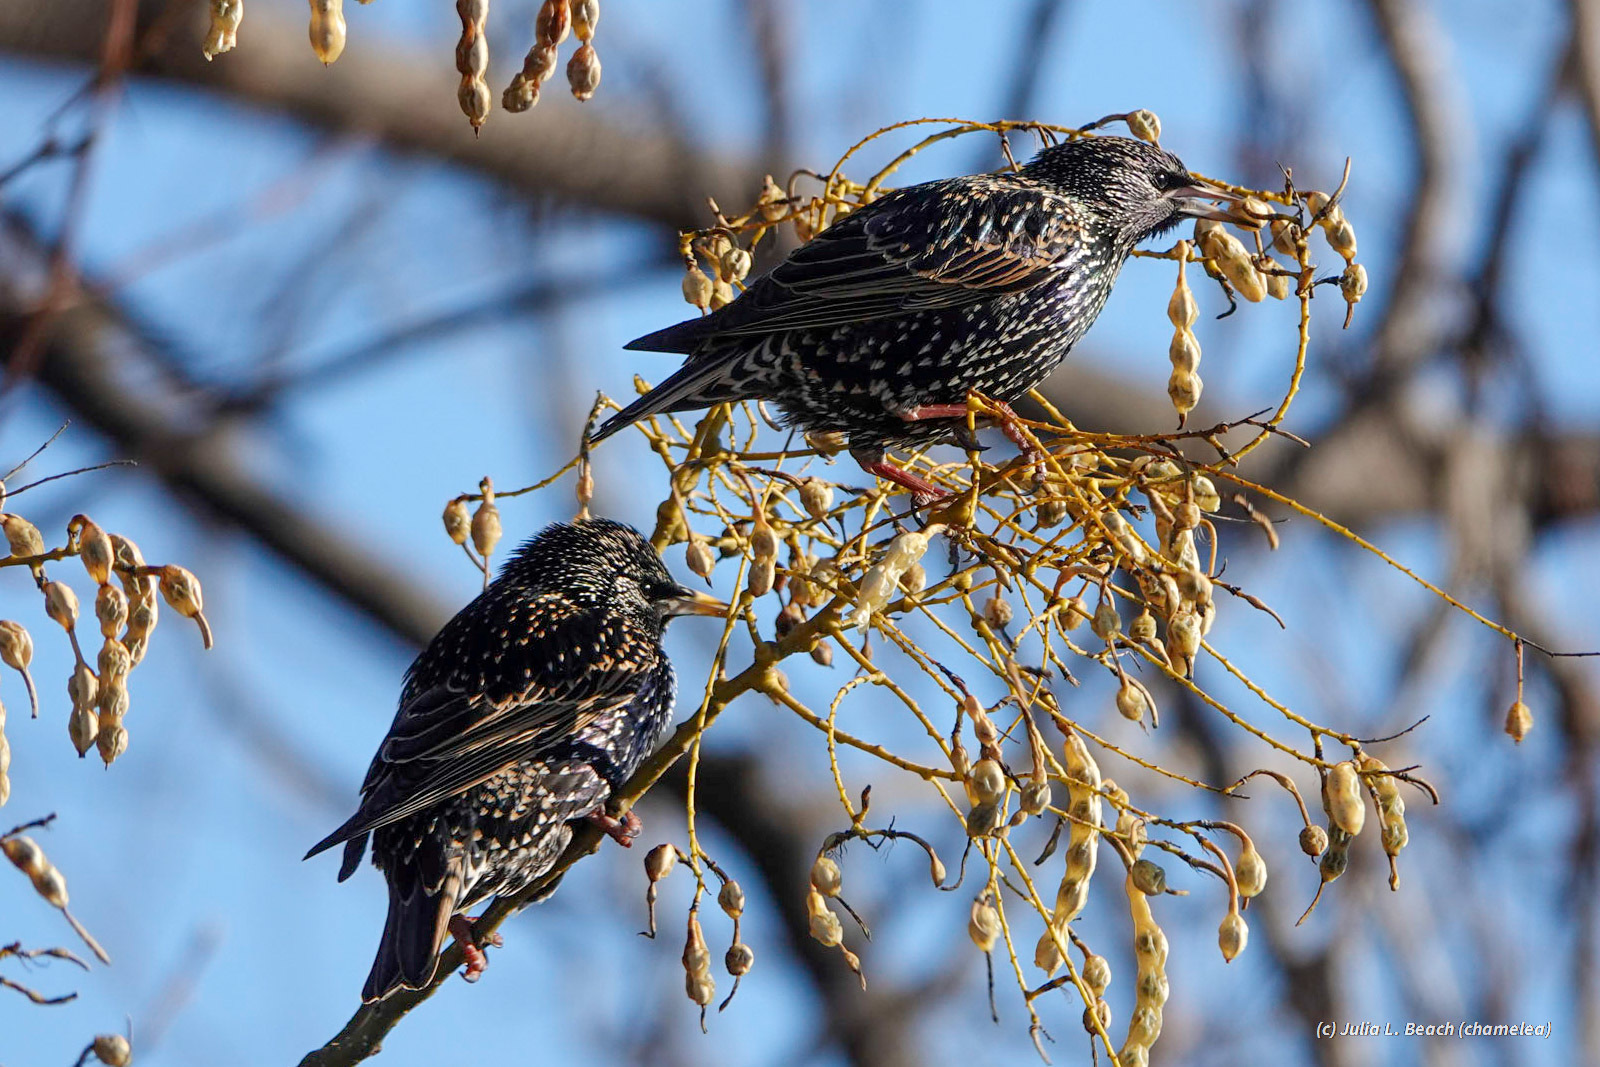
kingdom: Animalia
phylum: Chordata
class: Aves
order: Passeriformes
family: Sturnidae
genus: Sturnus
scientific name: Sturnus vulgaris
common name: Common starling
